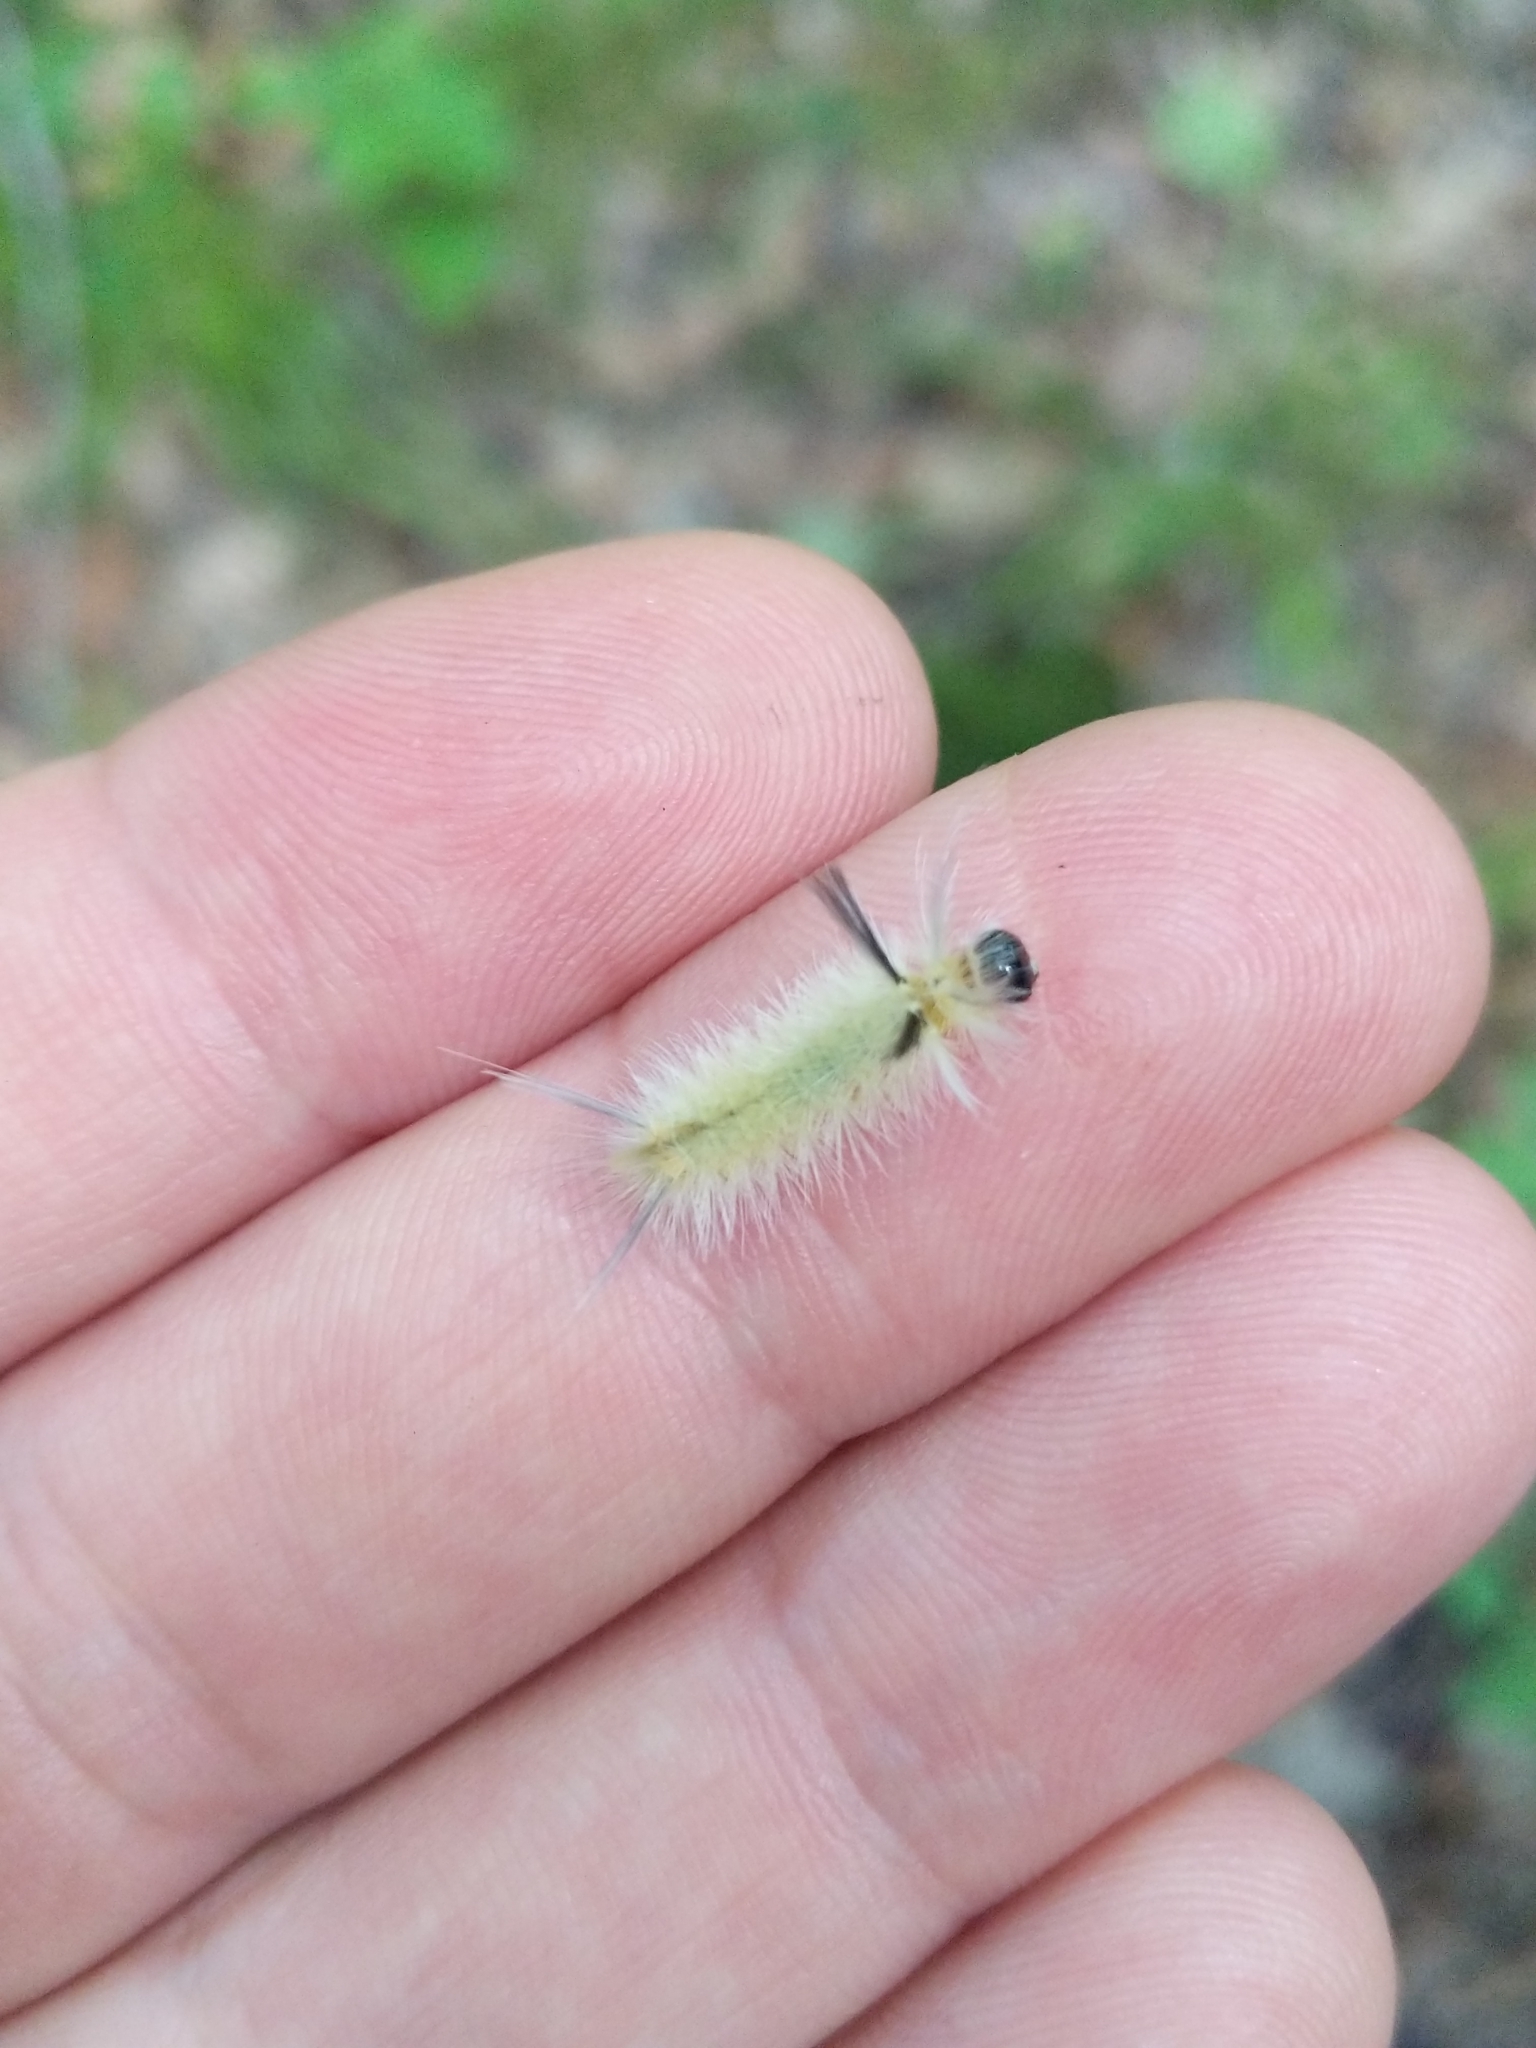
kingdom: Animalia
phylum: Arthropoda
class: Insecta
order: Lepidoptera
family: Erebidae
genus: Halysidota
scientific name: Halysidota tessellaris
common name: Banded tussock moth
